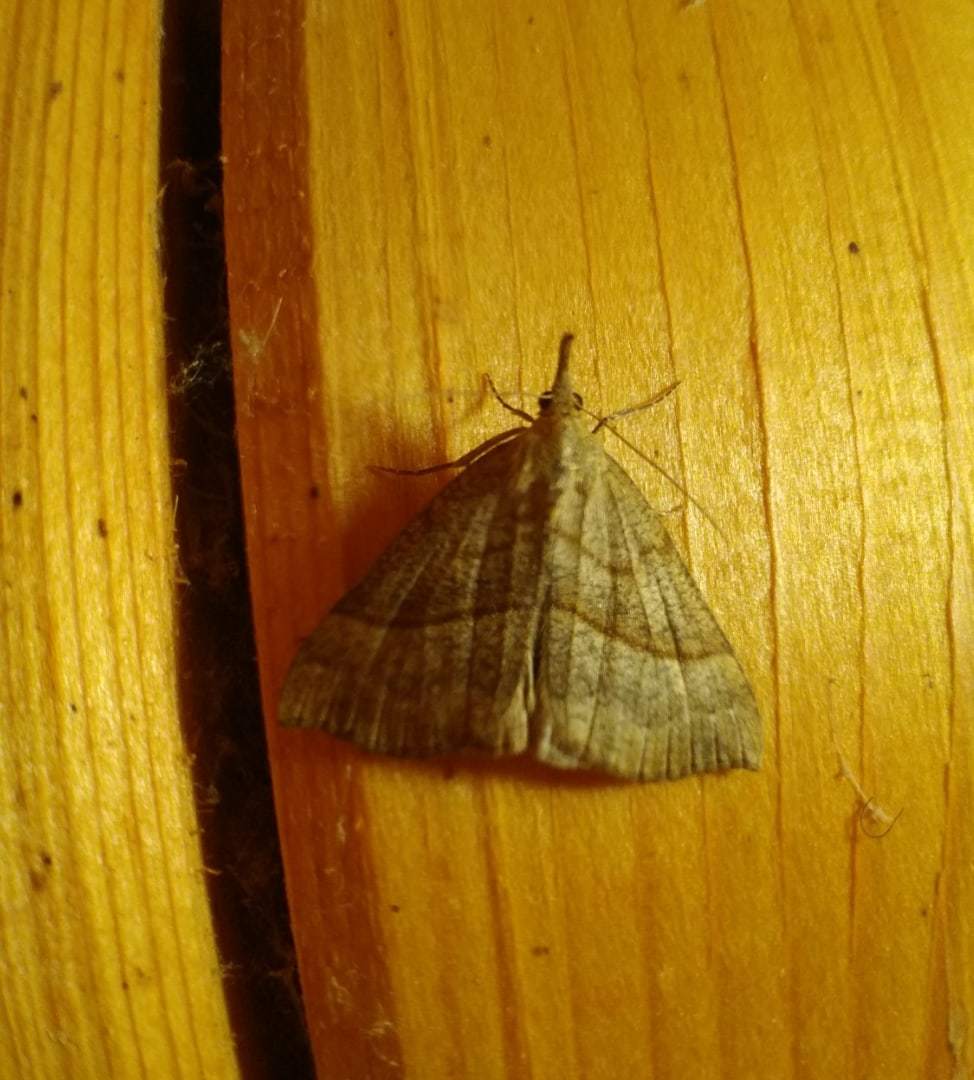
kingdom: Animalia
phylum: Arthropoda
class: Insecta
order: Lepidoptera
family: Erebidae
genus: Hypena
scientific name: Hypena proboscidalis
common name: Snout
